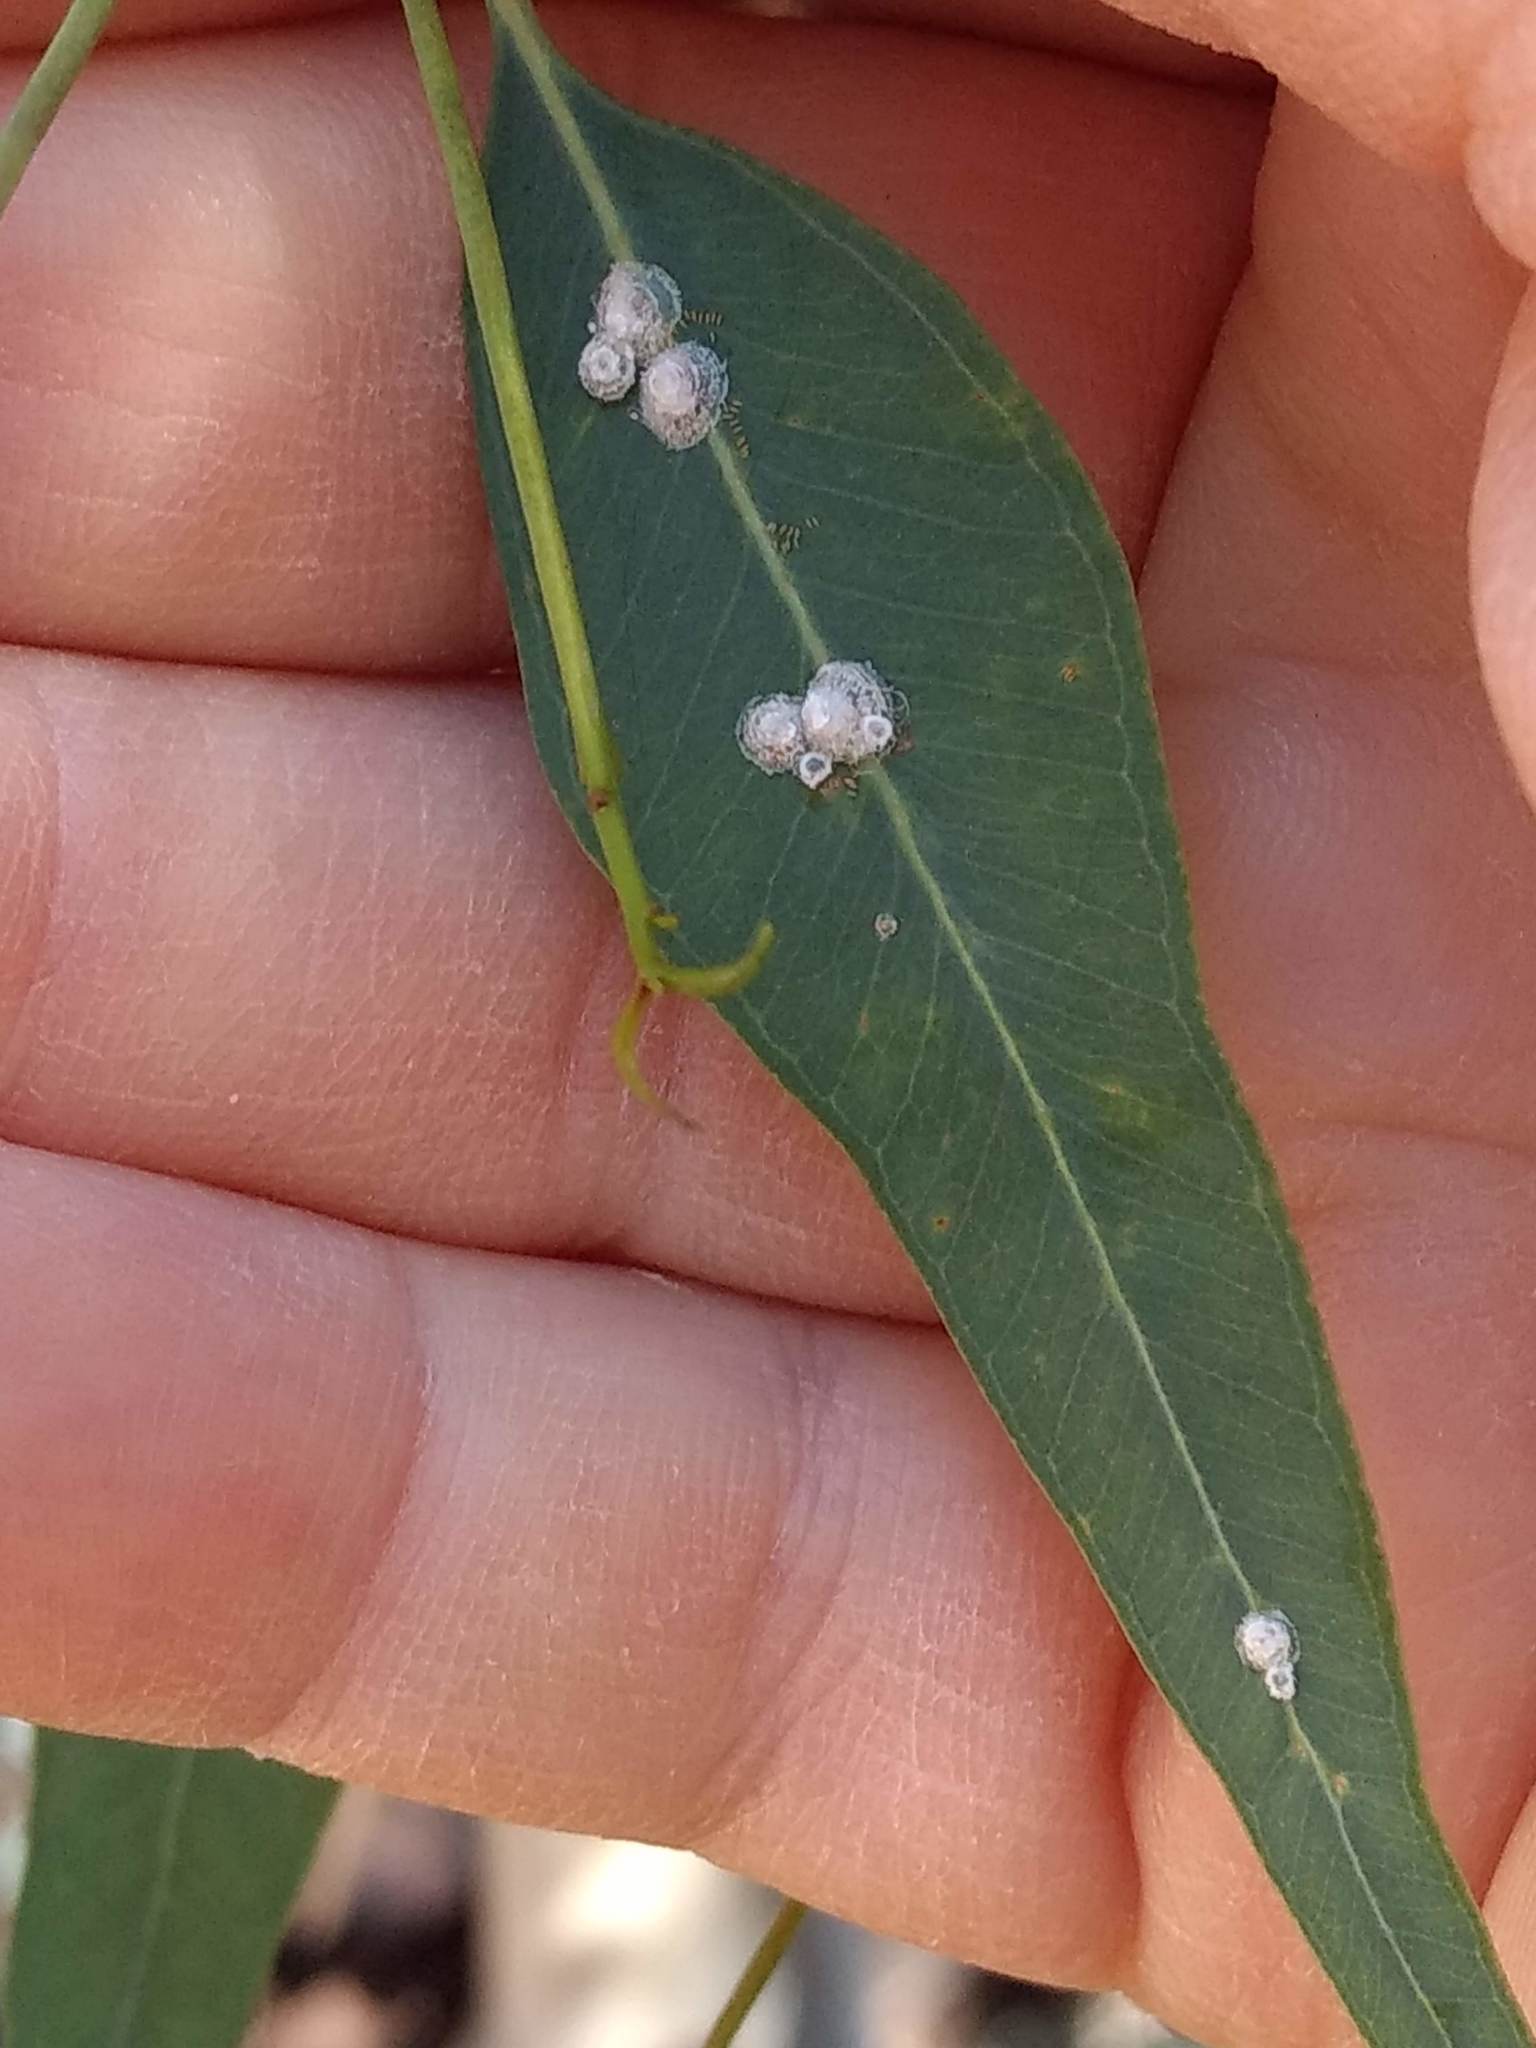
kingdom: Animalia
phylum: Arthropoda
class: Insecta
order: Hemiptera
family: Aphalaridae
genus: Glycaspis
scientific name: Glycaspis brimblecombei
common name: Red gum lerp psyllid
